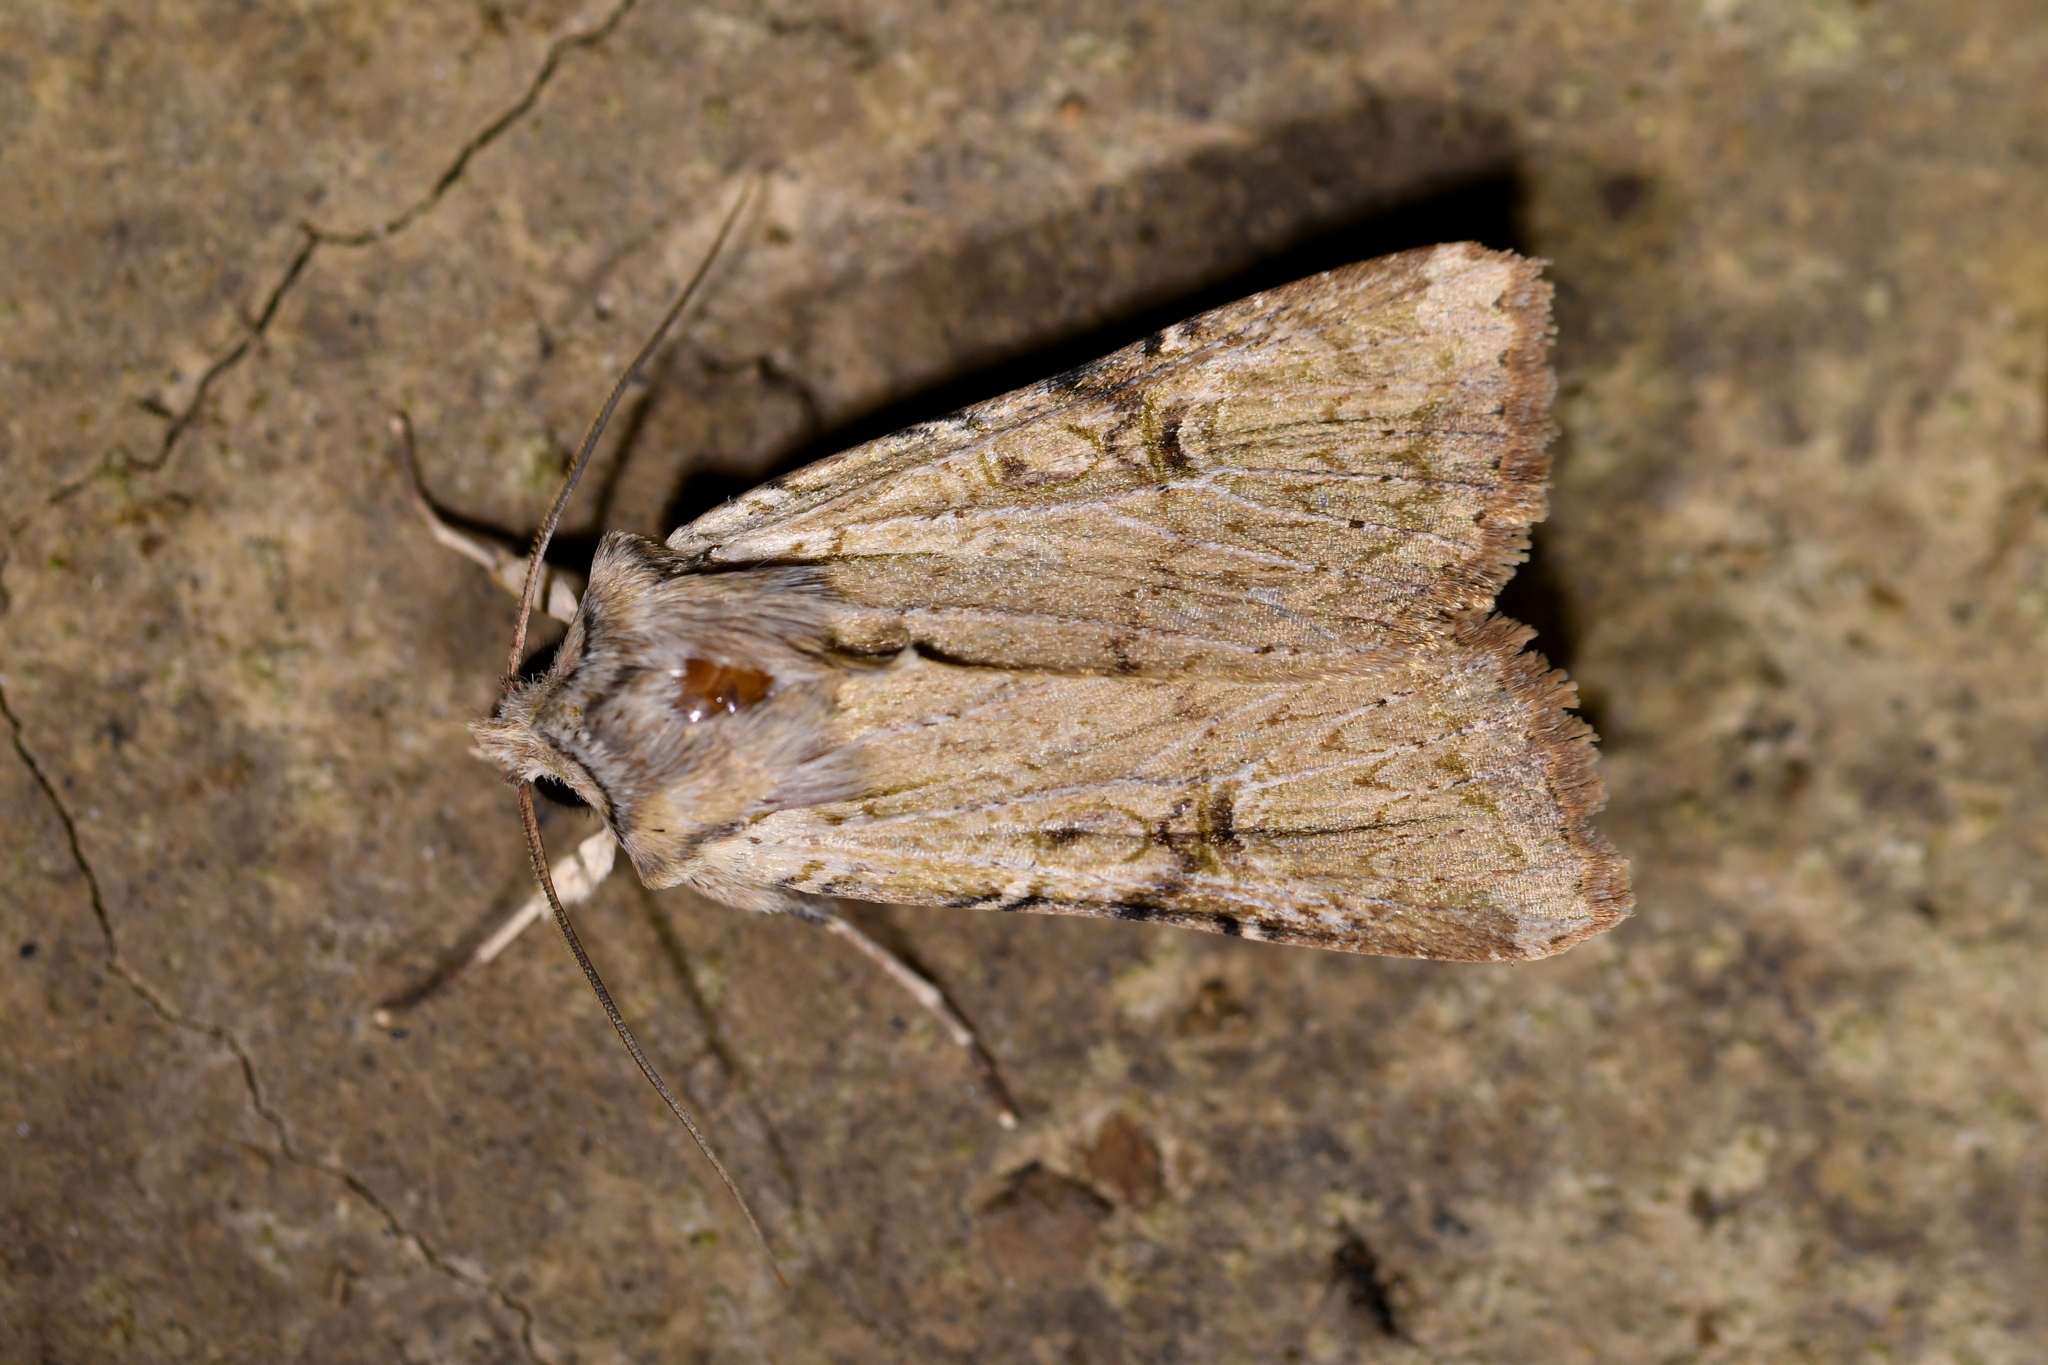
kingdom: Animalia
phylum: Arthropoda
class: Insecta
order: Lepidoptera
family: Noctuidae
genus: Ichneutica
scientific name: Ichneutica omoplaca
